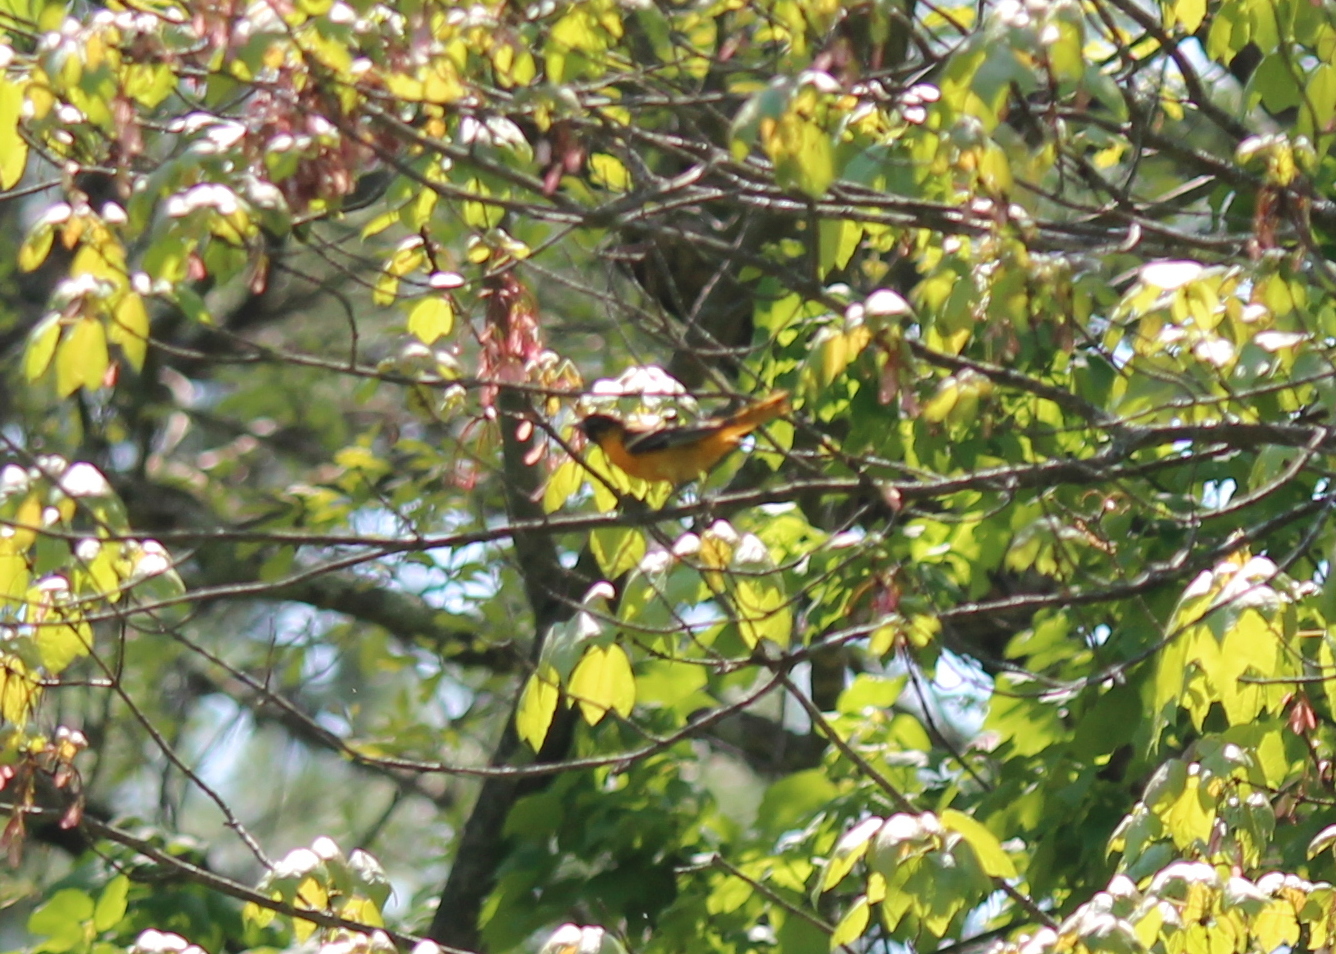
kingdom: Animalia
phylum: Chordata
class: Aves
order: Passeriformes
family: Icteridae
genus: Icterus
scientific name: Icterus galbula
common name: Baltimore oriole
